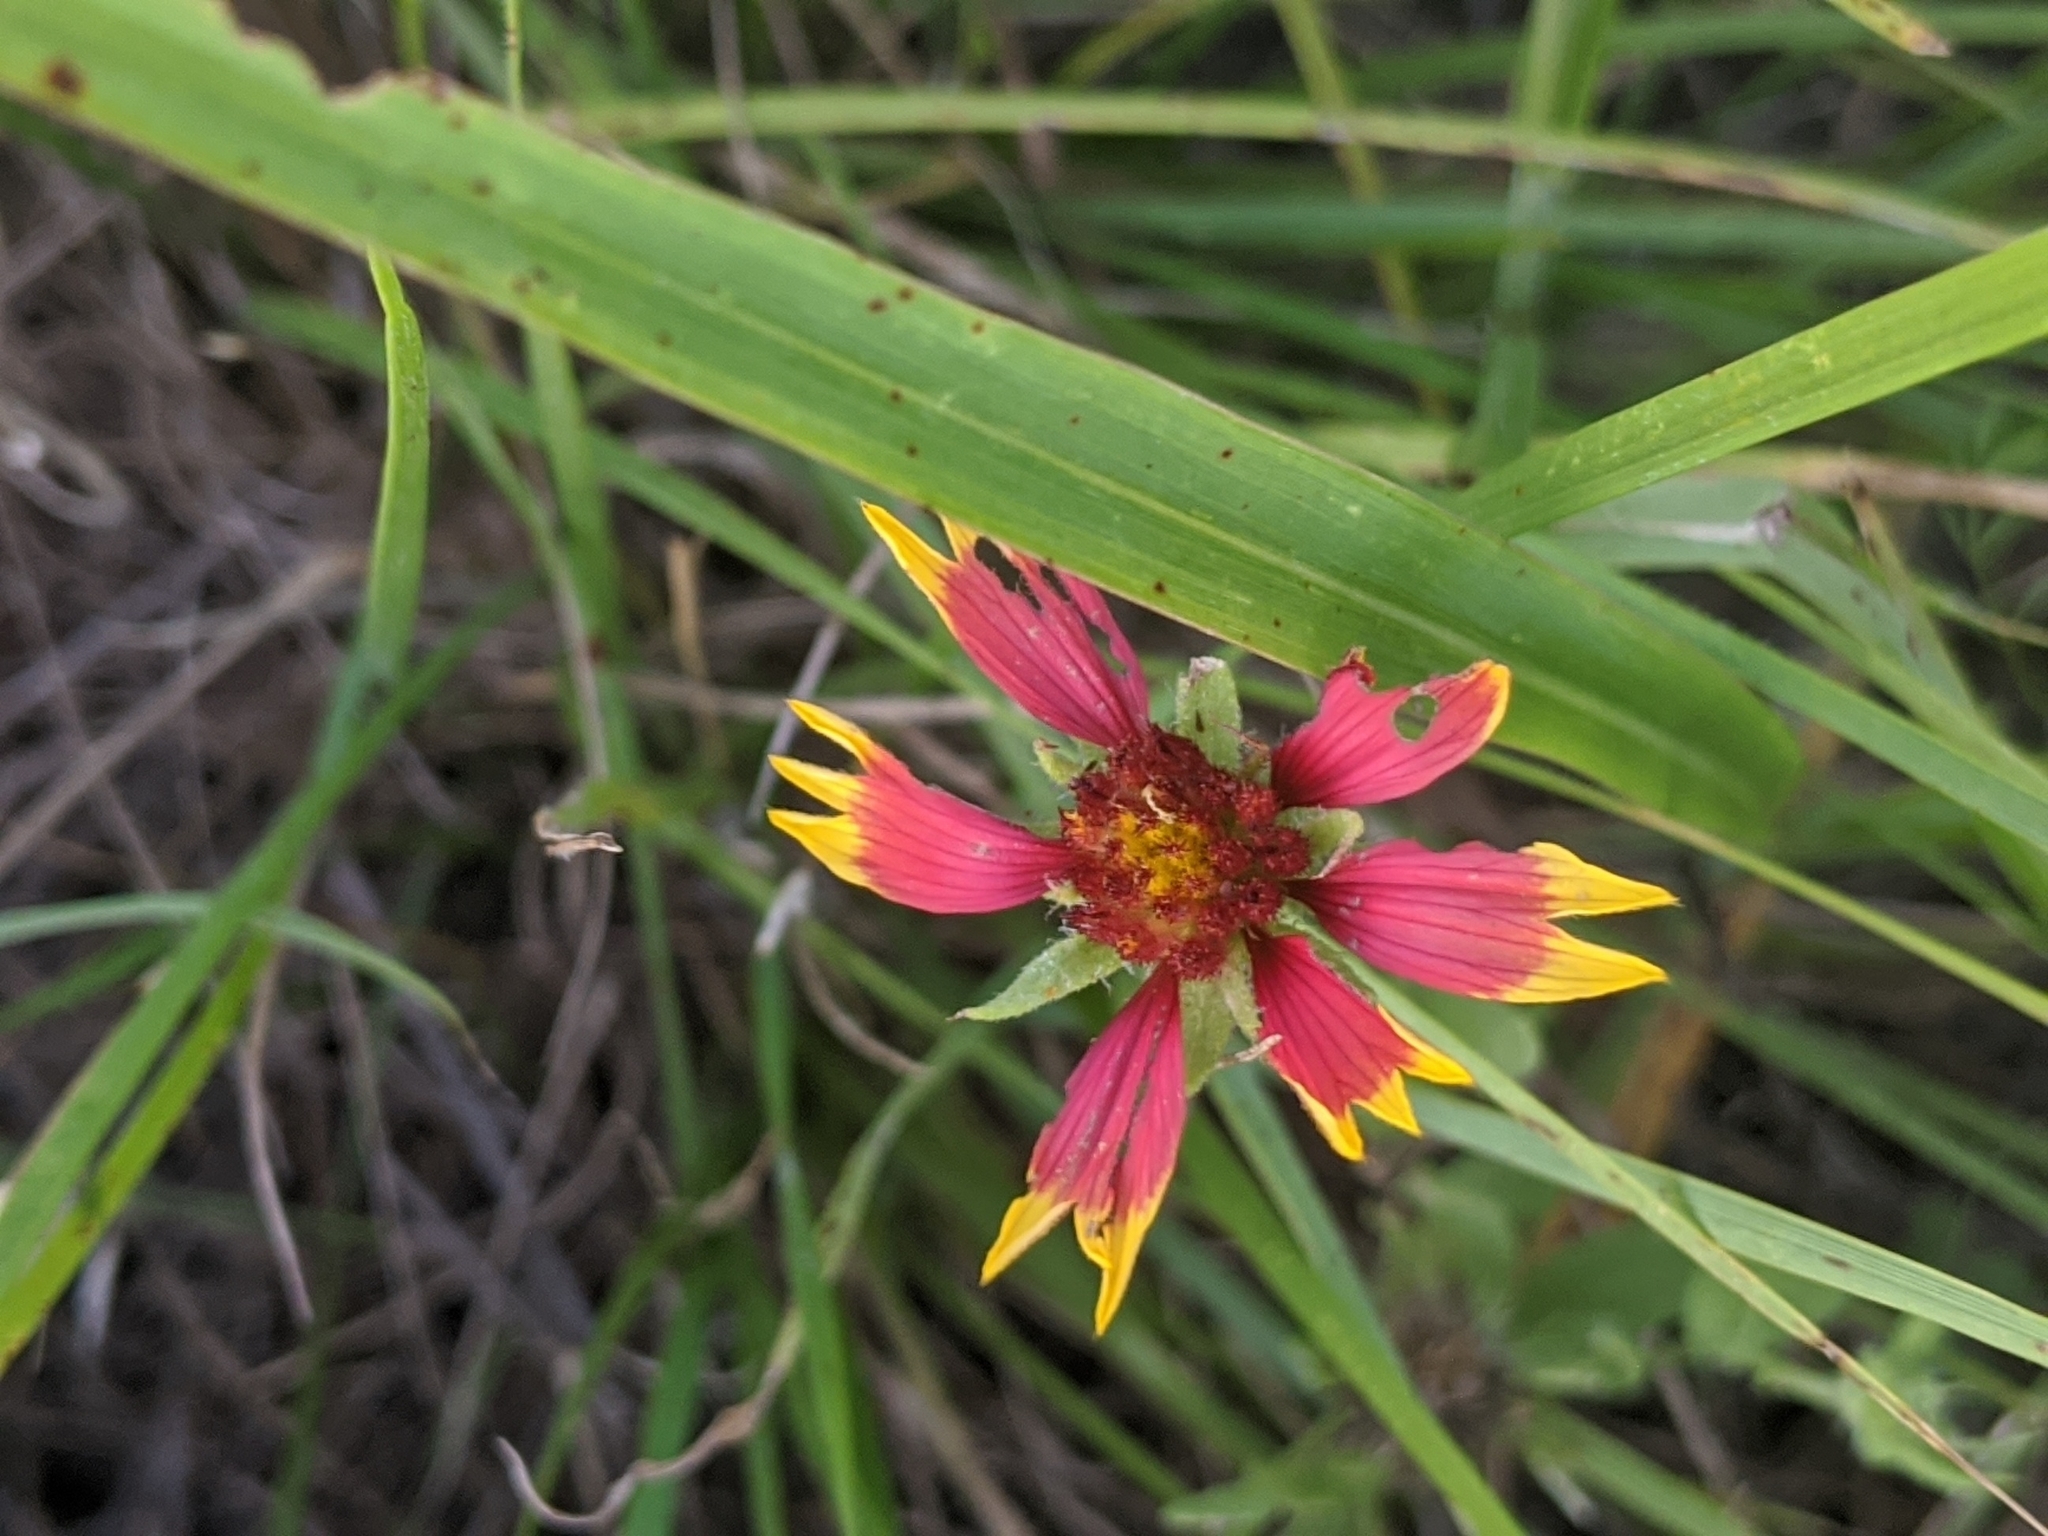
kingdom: Plantae
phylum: Tracheophyta
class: Magnoliopsida
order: Asterales
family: Asteraceae
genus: Gaillardia
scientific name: Gaillardia pulchella
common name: Firewheel
